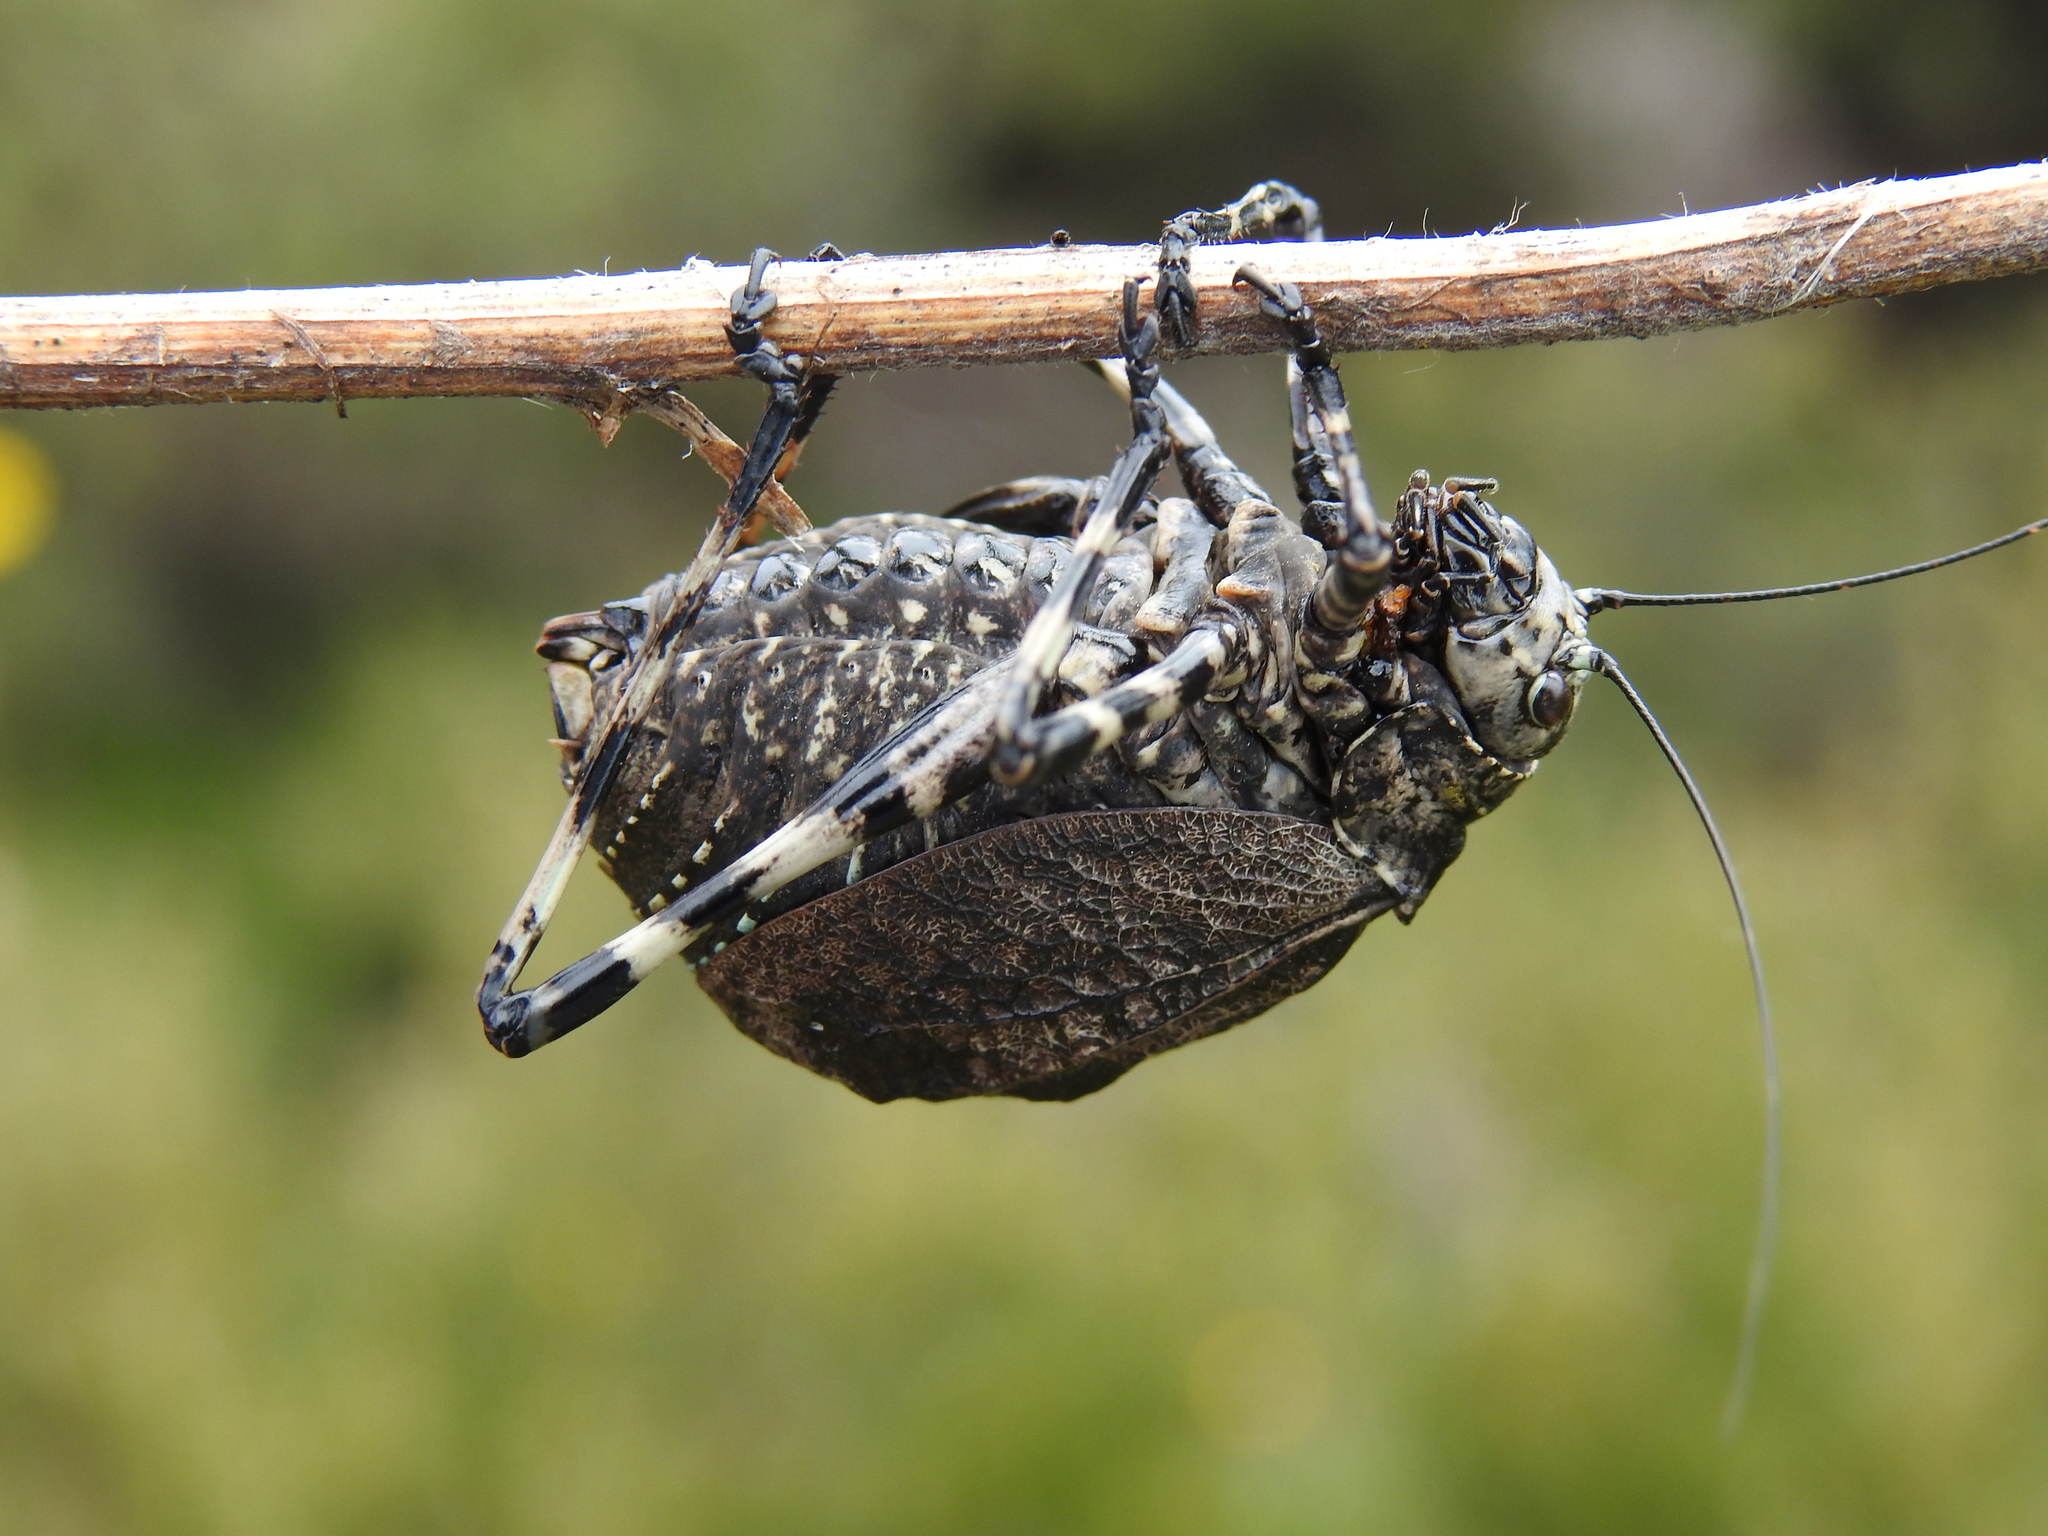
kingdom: Animalia
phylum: Arthropoda
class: Insecta
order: Orthoptera
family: Tettigoniidae
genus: Acripeza
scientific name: Acripeza reticulata
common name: Mountain katydid
